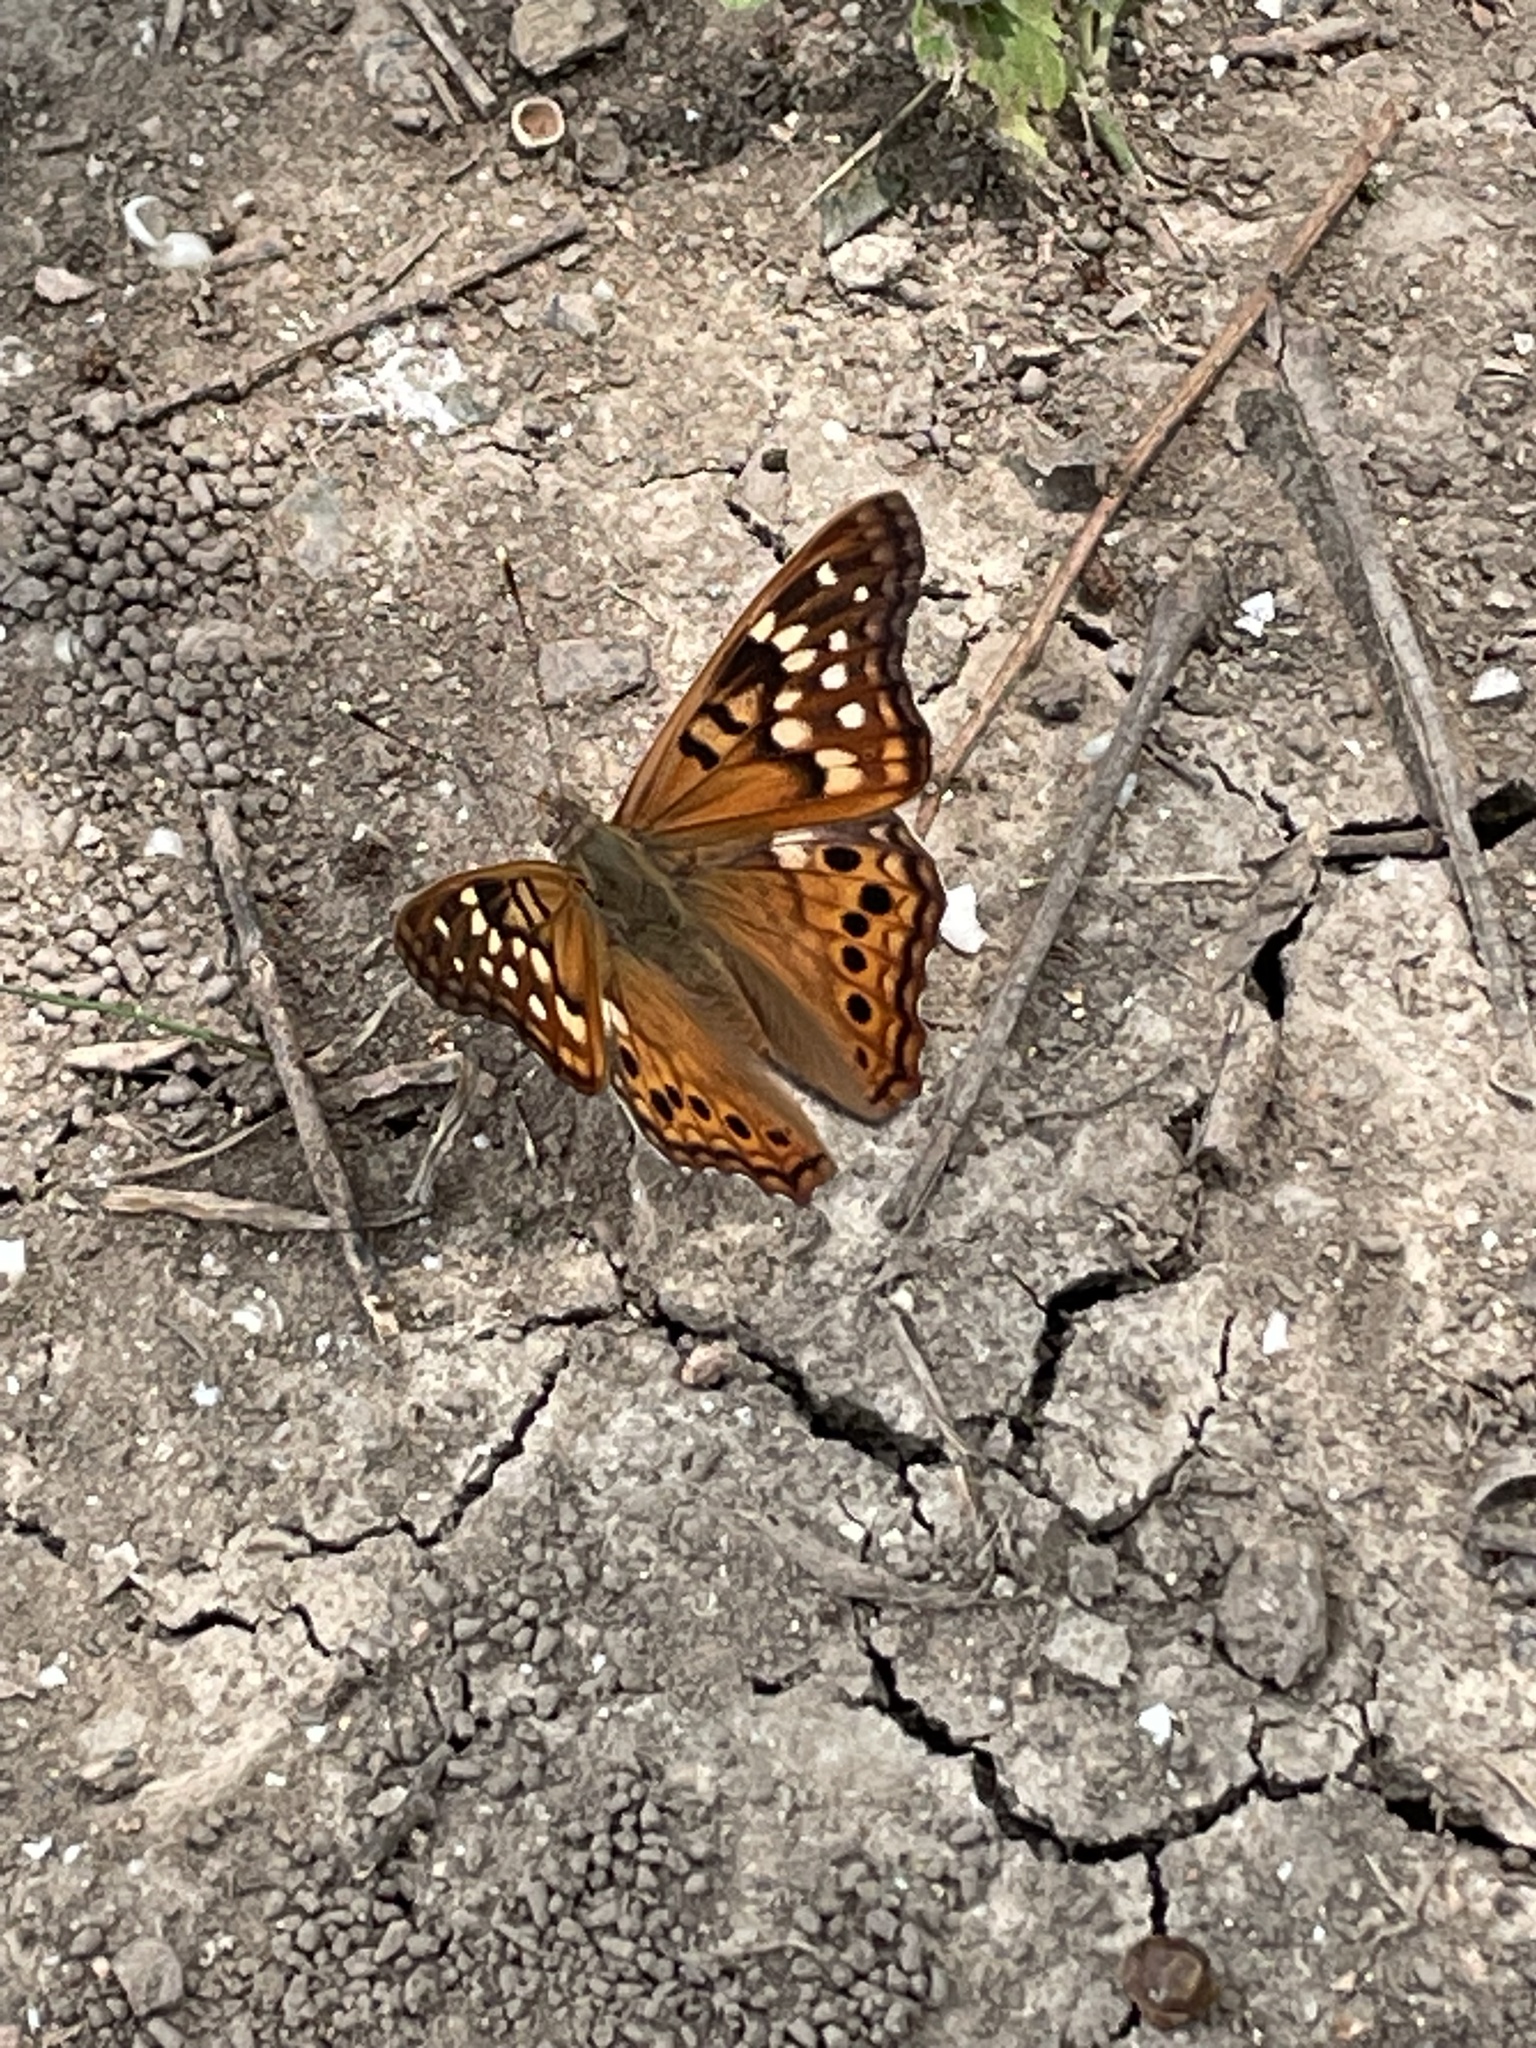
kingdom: Animalia
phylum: Arthropoda
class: Insecta
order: Lepidoptera
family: Nymphalidae
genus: Asterocampa
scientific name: Asterocampa clyton
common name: Tawny emperor
